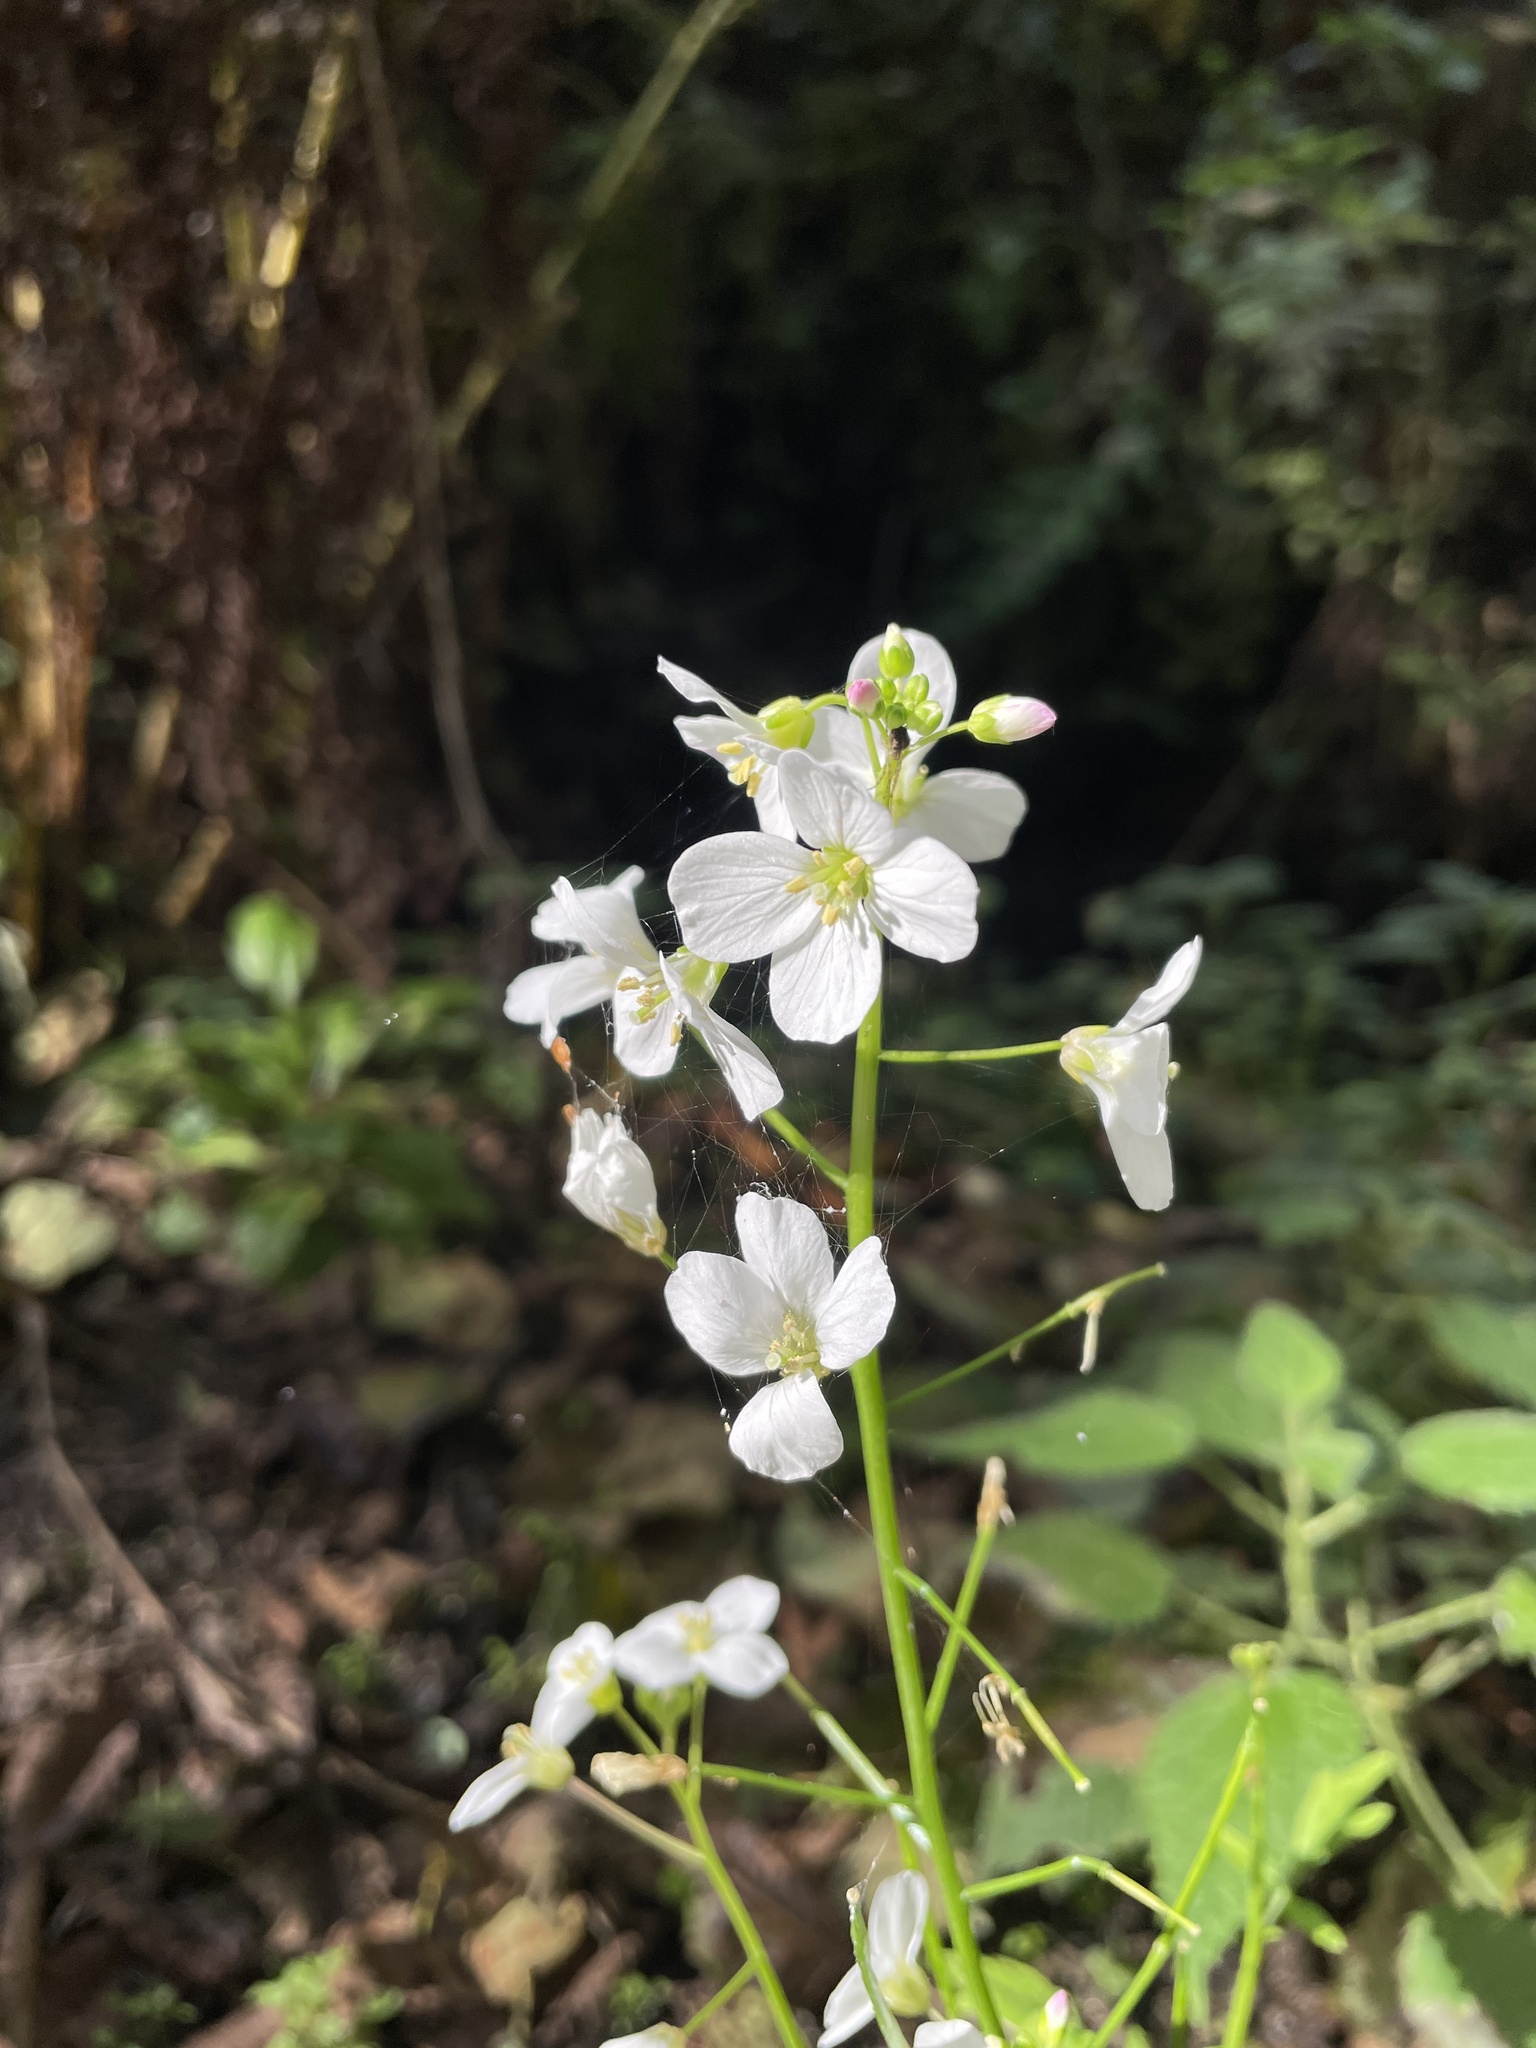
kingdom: Plantae
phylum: Tracheophyta
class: Magnoliopsida
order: Brassicales
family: Brassicaceae
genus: Cardamine
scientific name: Cardamine californica
